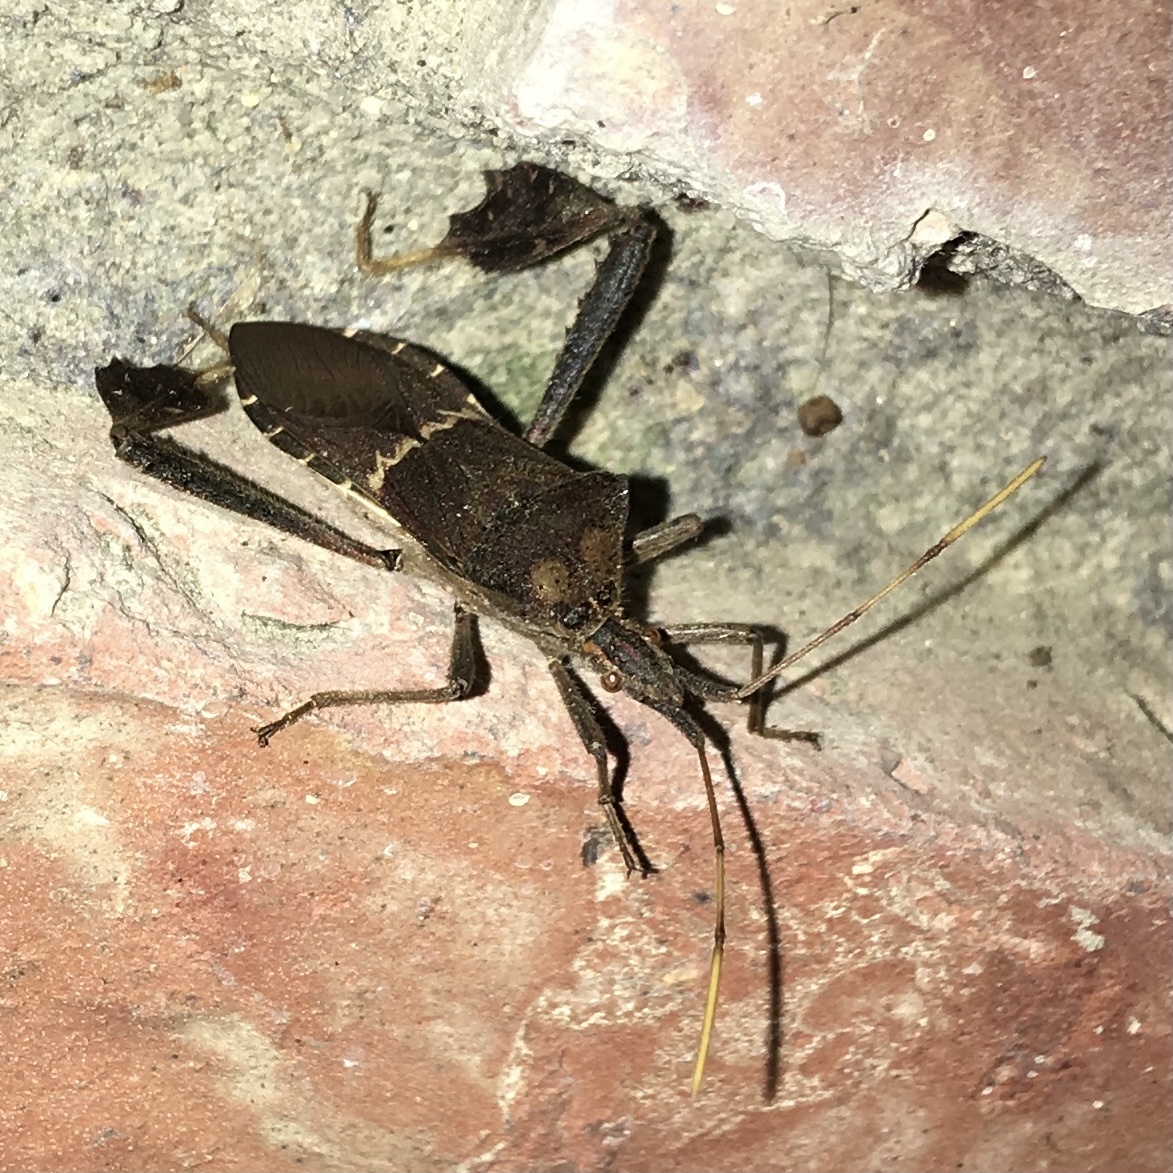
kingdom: Animalia
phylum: Arthropoda
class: Insecta
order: Hemiptera
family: Coreidae
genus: Leptoglossus
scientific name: Leptoglossus zonatus
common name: Large-legged bug
